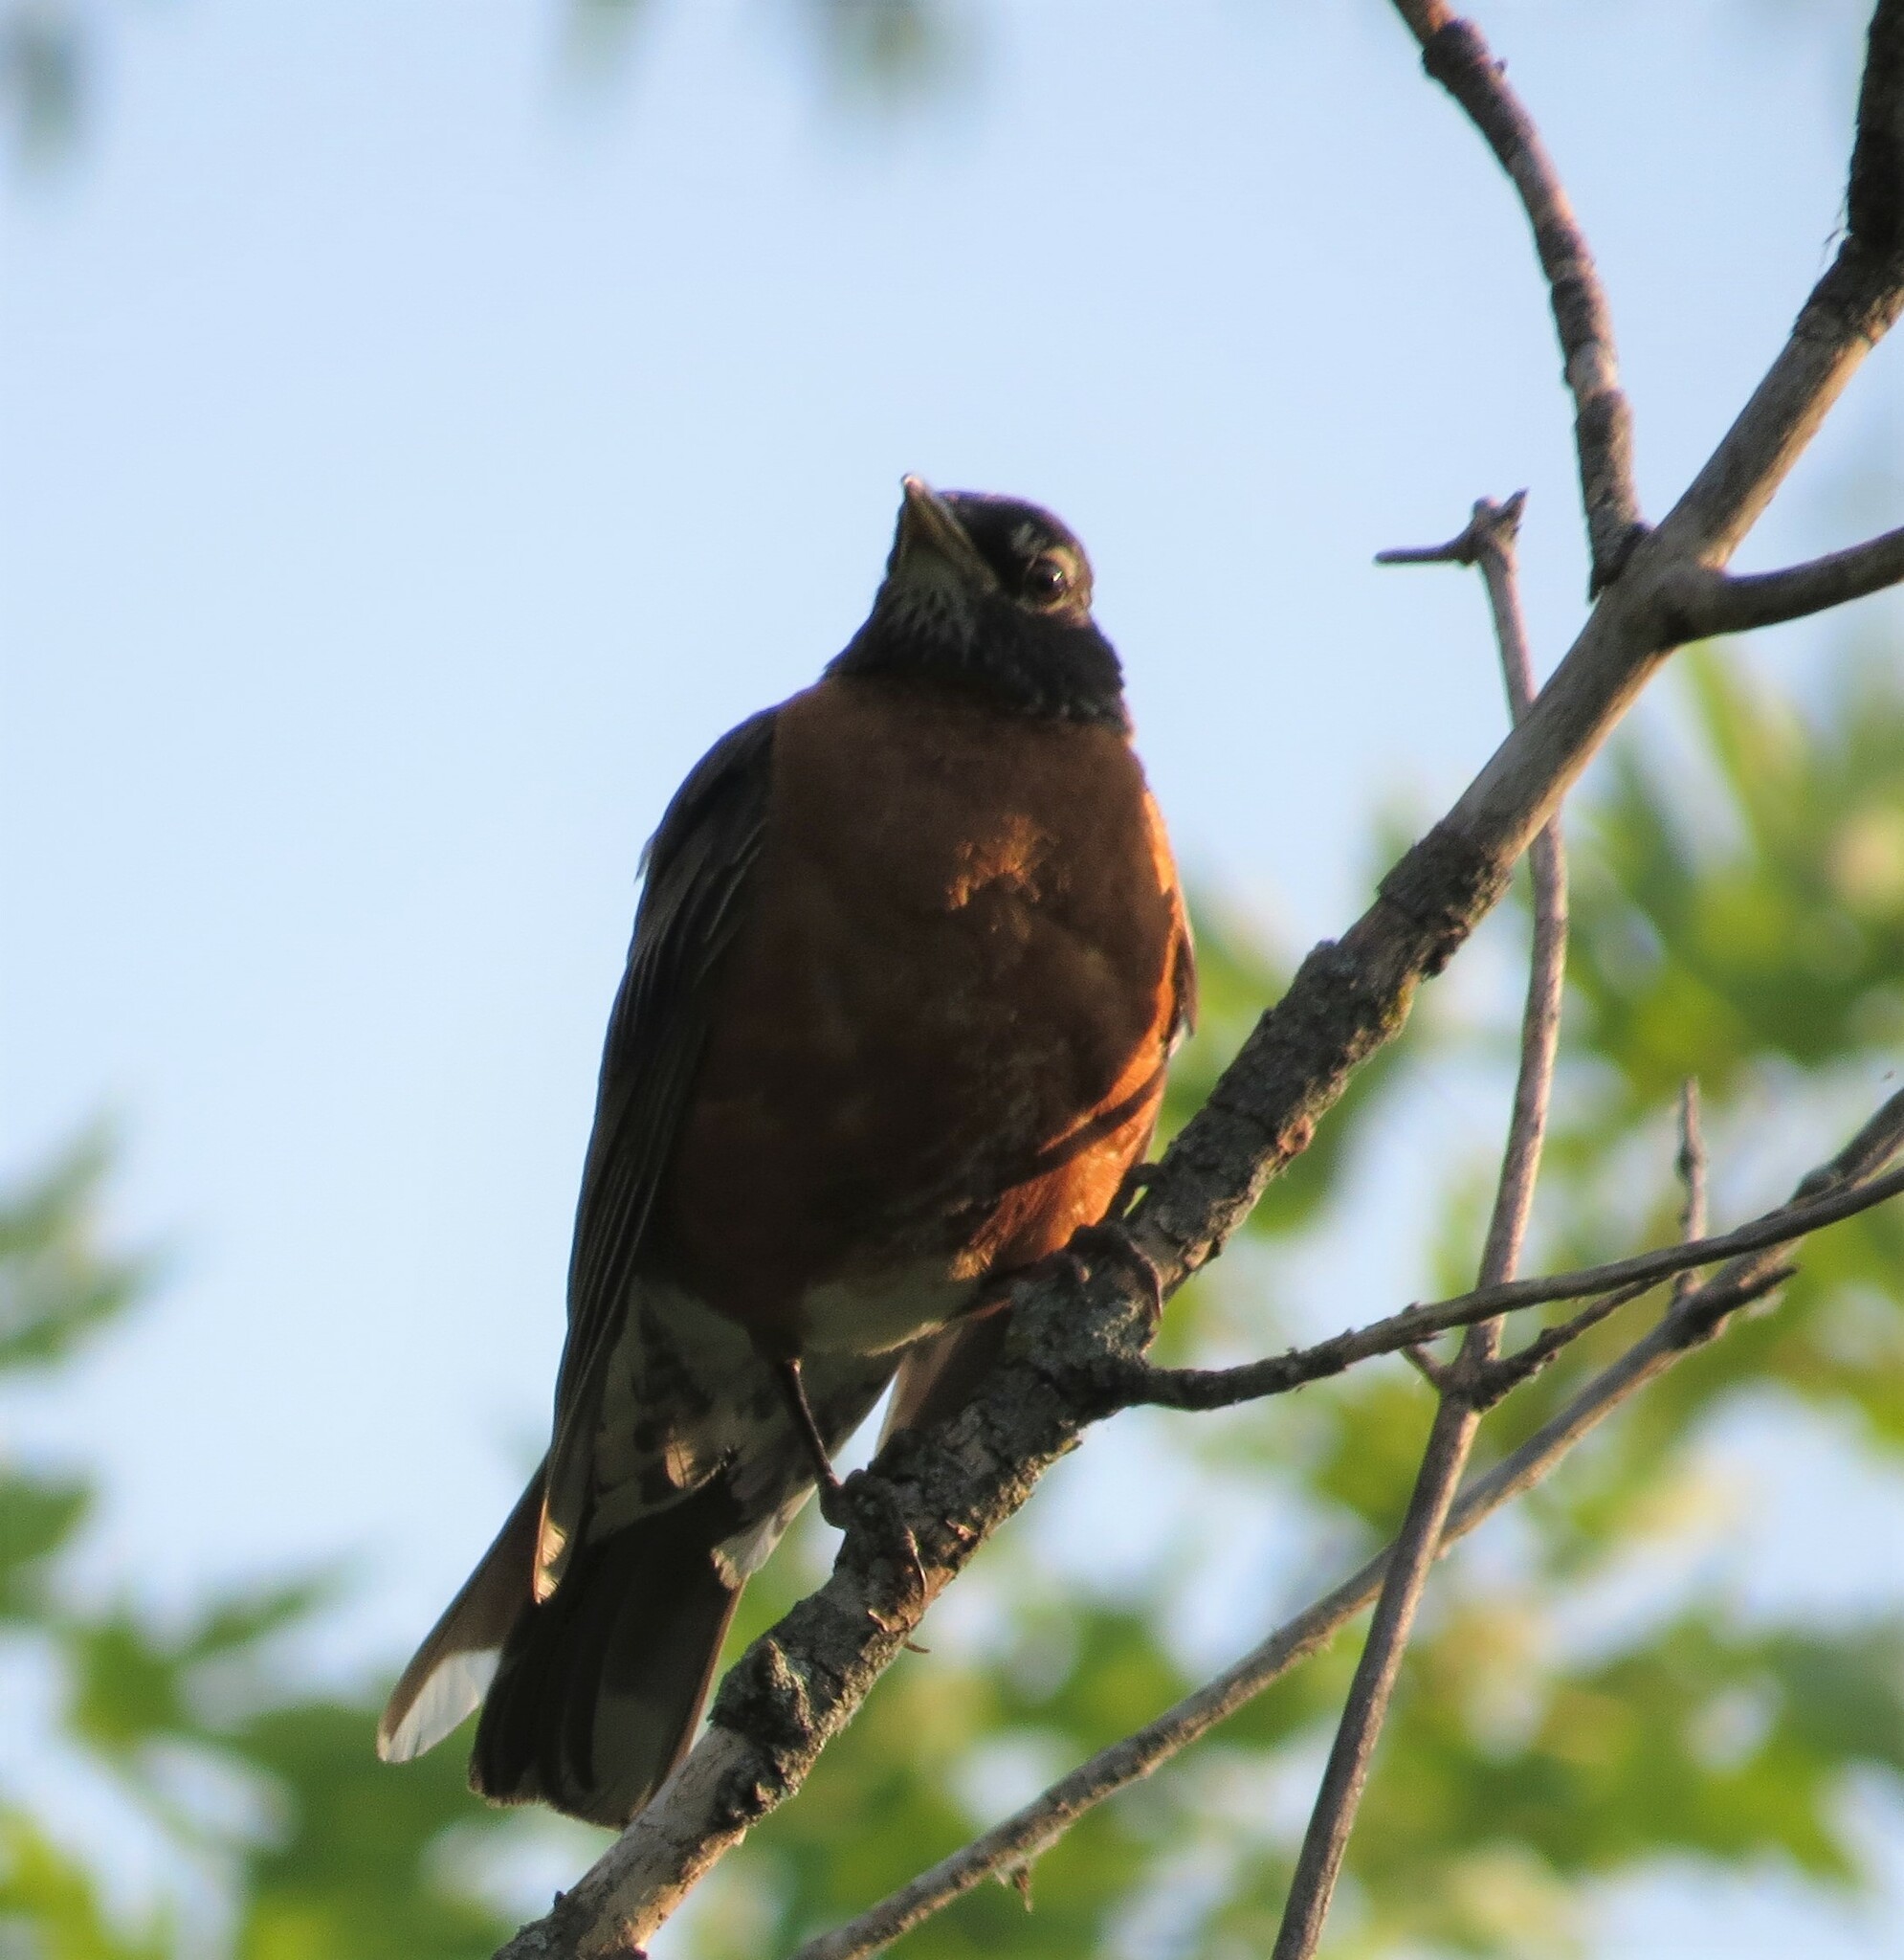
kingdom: Animalia
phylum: Chordata
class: Aves
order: Passeriformes
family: Turdidae
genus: Turdus
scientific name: Turdus migratorius
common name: American robin
